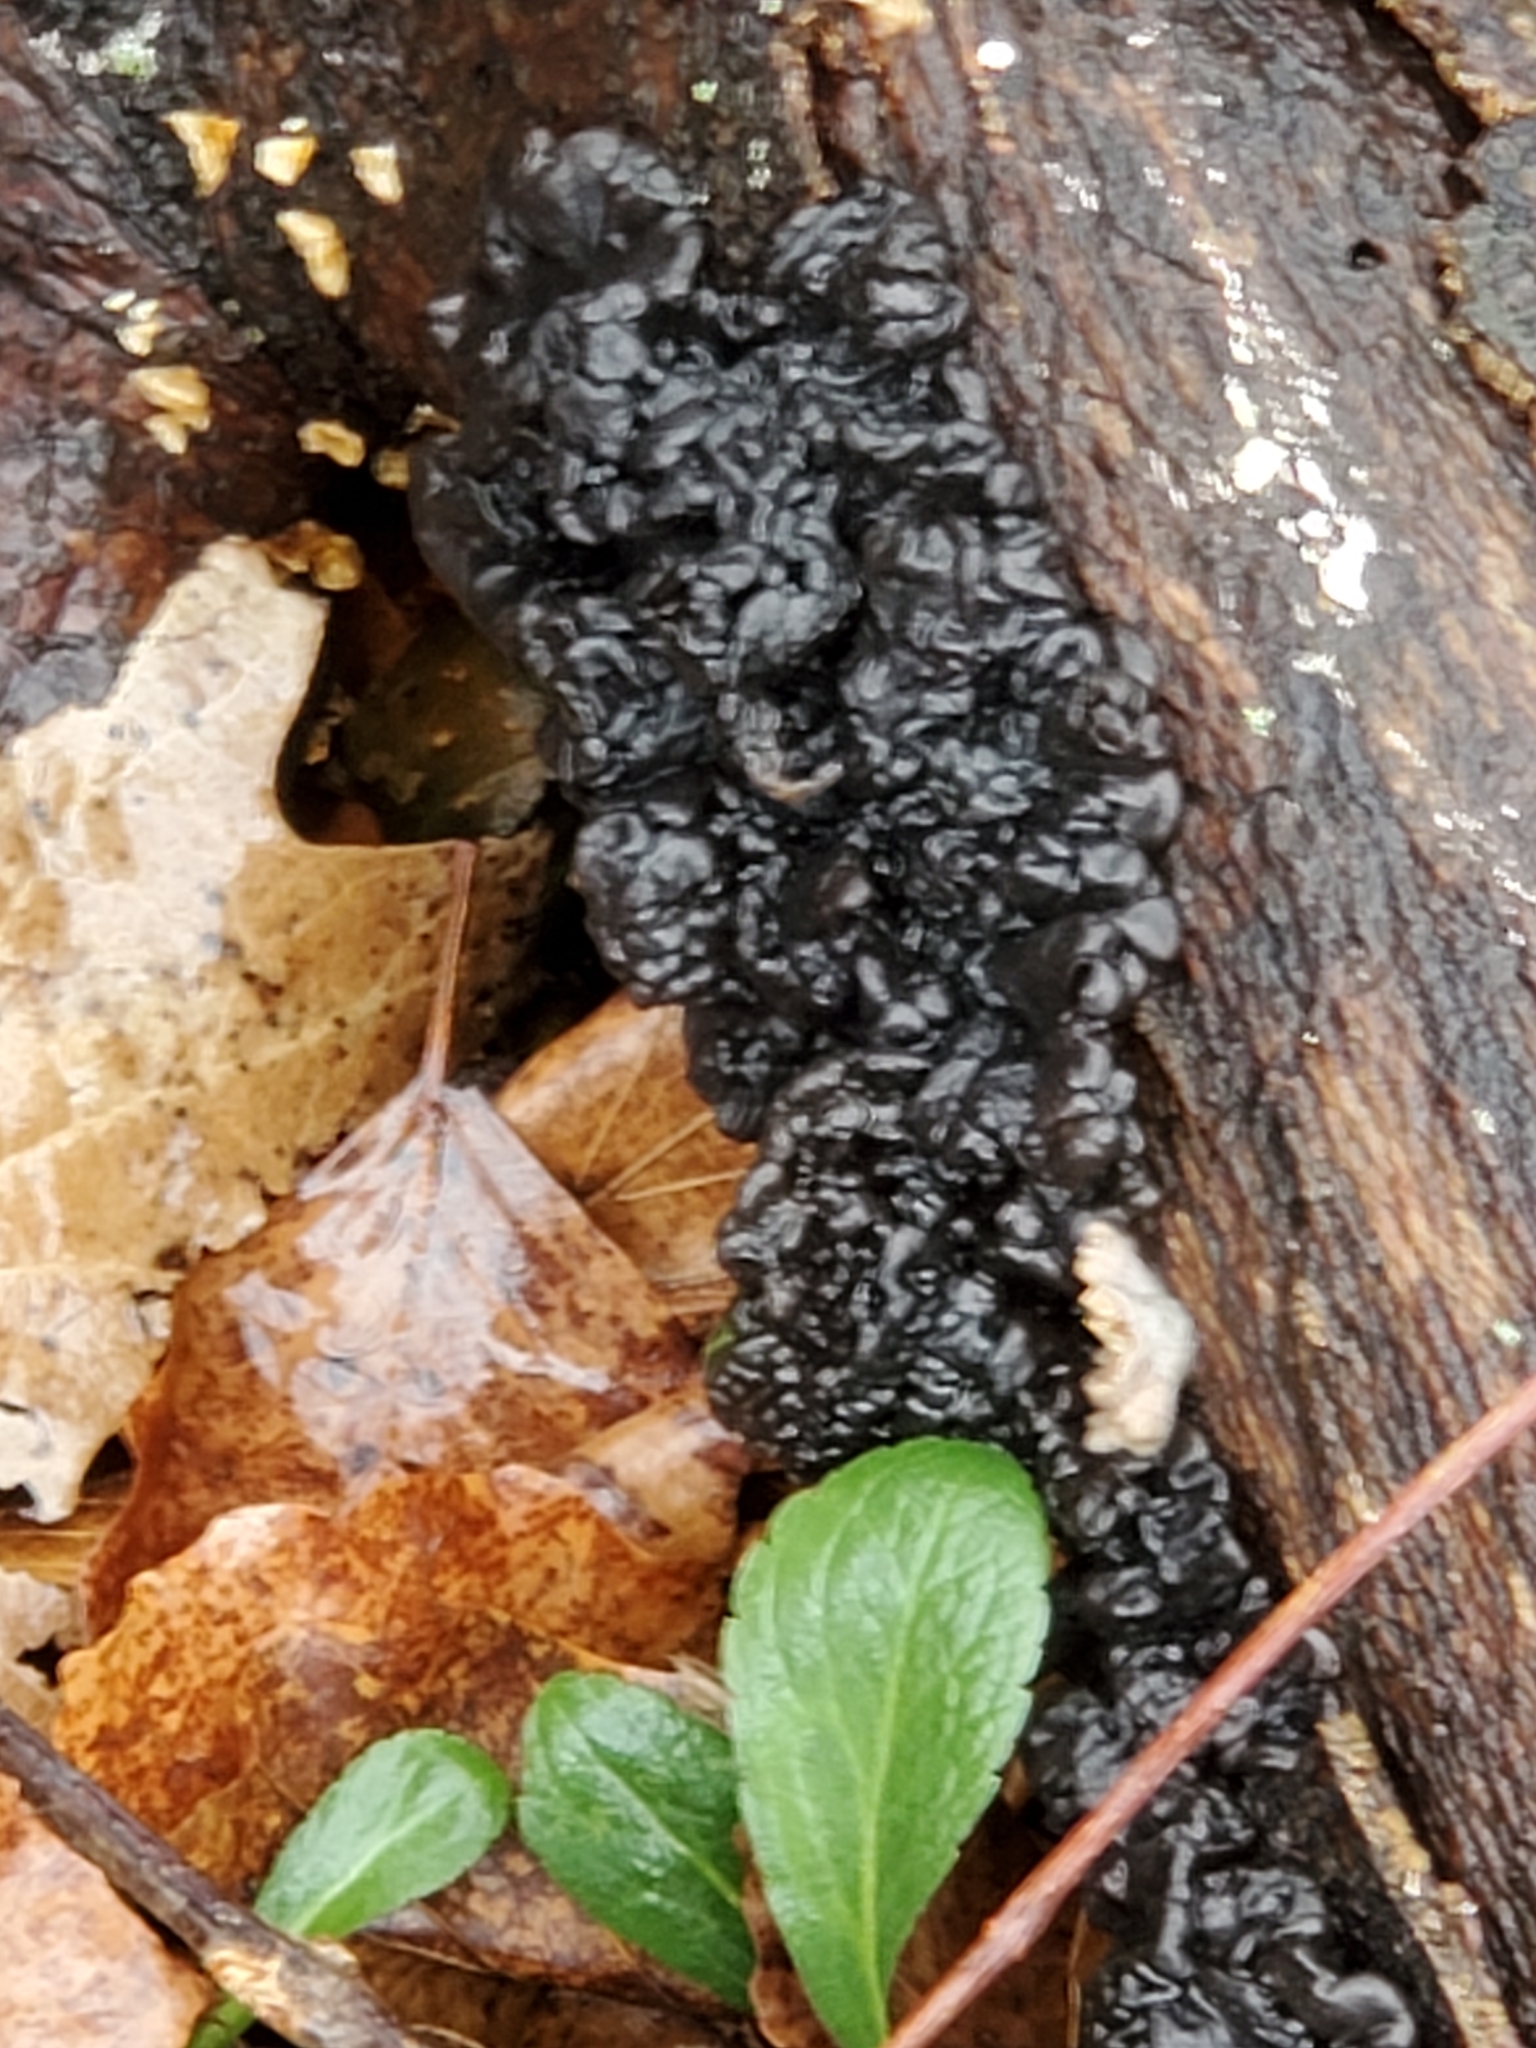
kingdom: Fungi
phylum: Basidiomycota
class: Agaricomycetes
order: Auriculariales
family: Auriculariaceae
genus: Exidia
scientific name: Exidia nigricans
